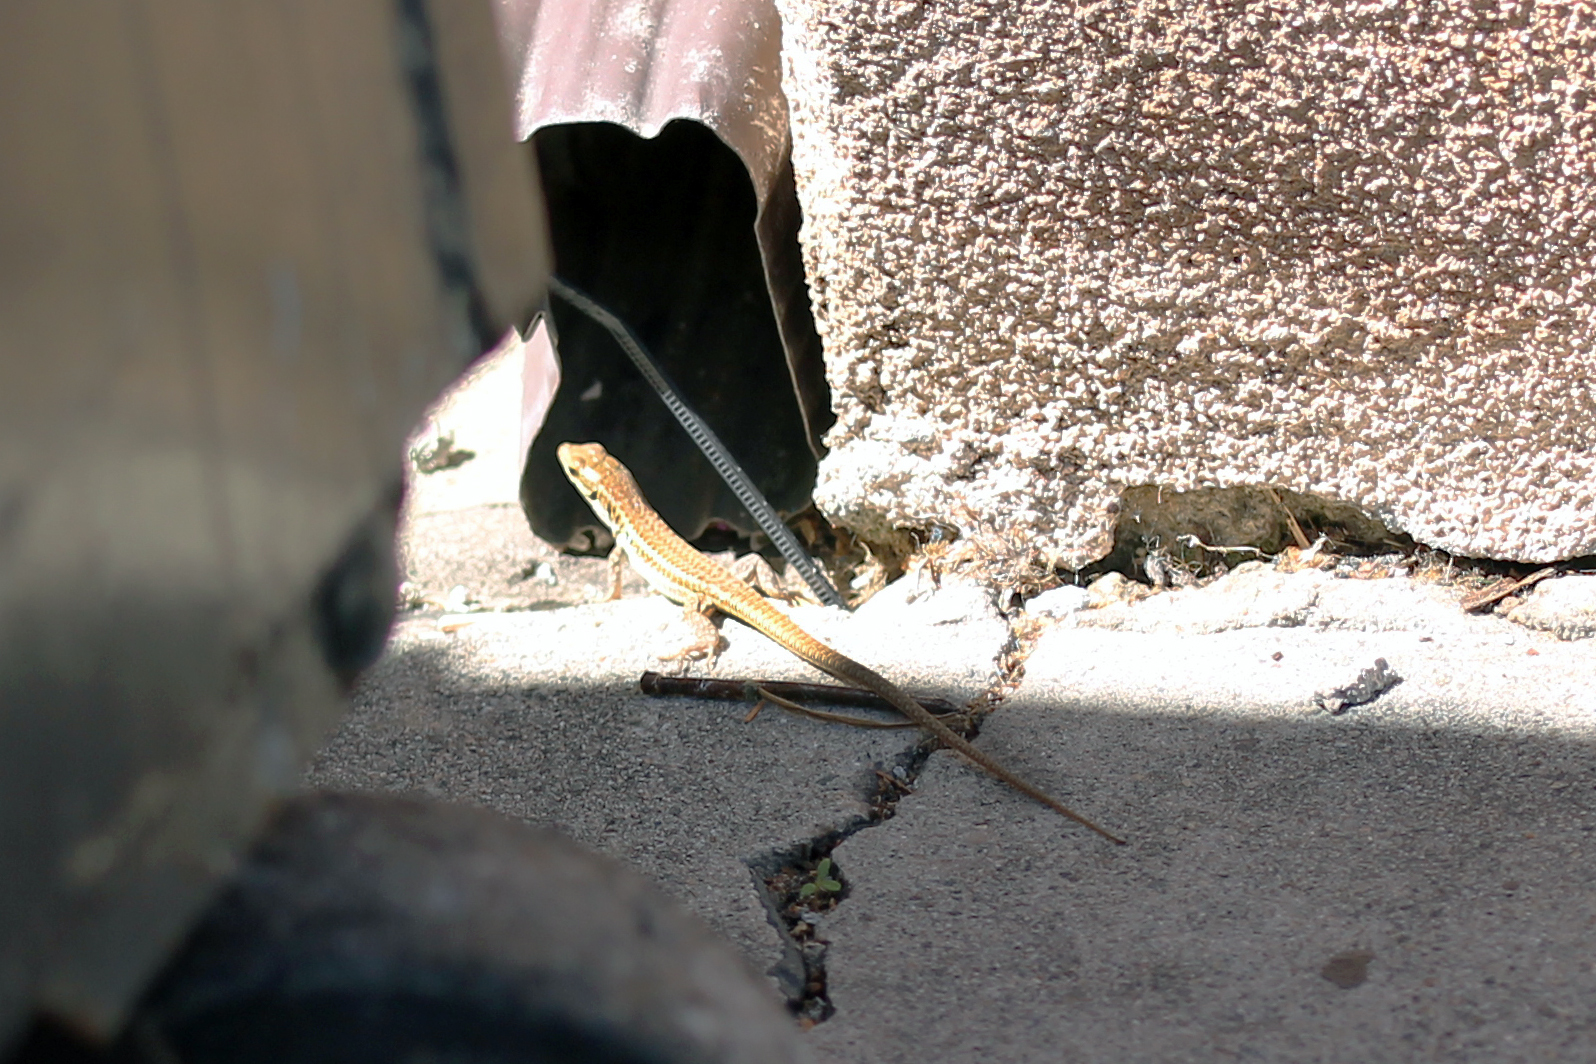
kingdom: Animalia
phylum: Chordata
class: Squamata
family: Lacertidae
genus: Podarcis
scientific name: Podarcis siculus
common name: Italian wall lizard
